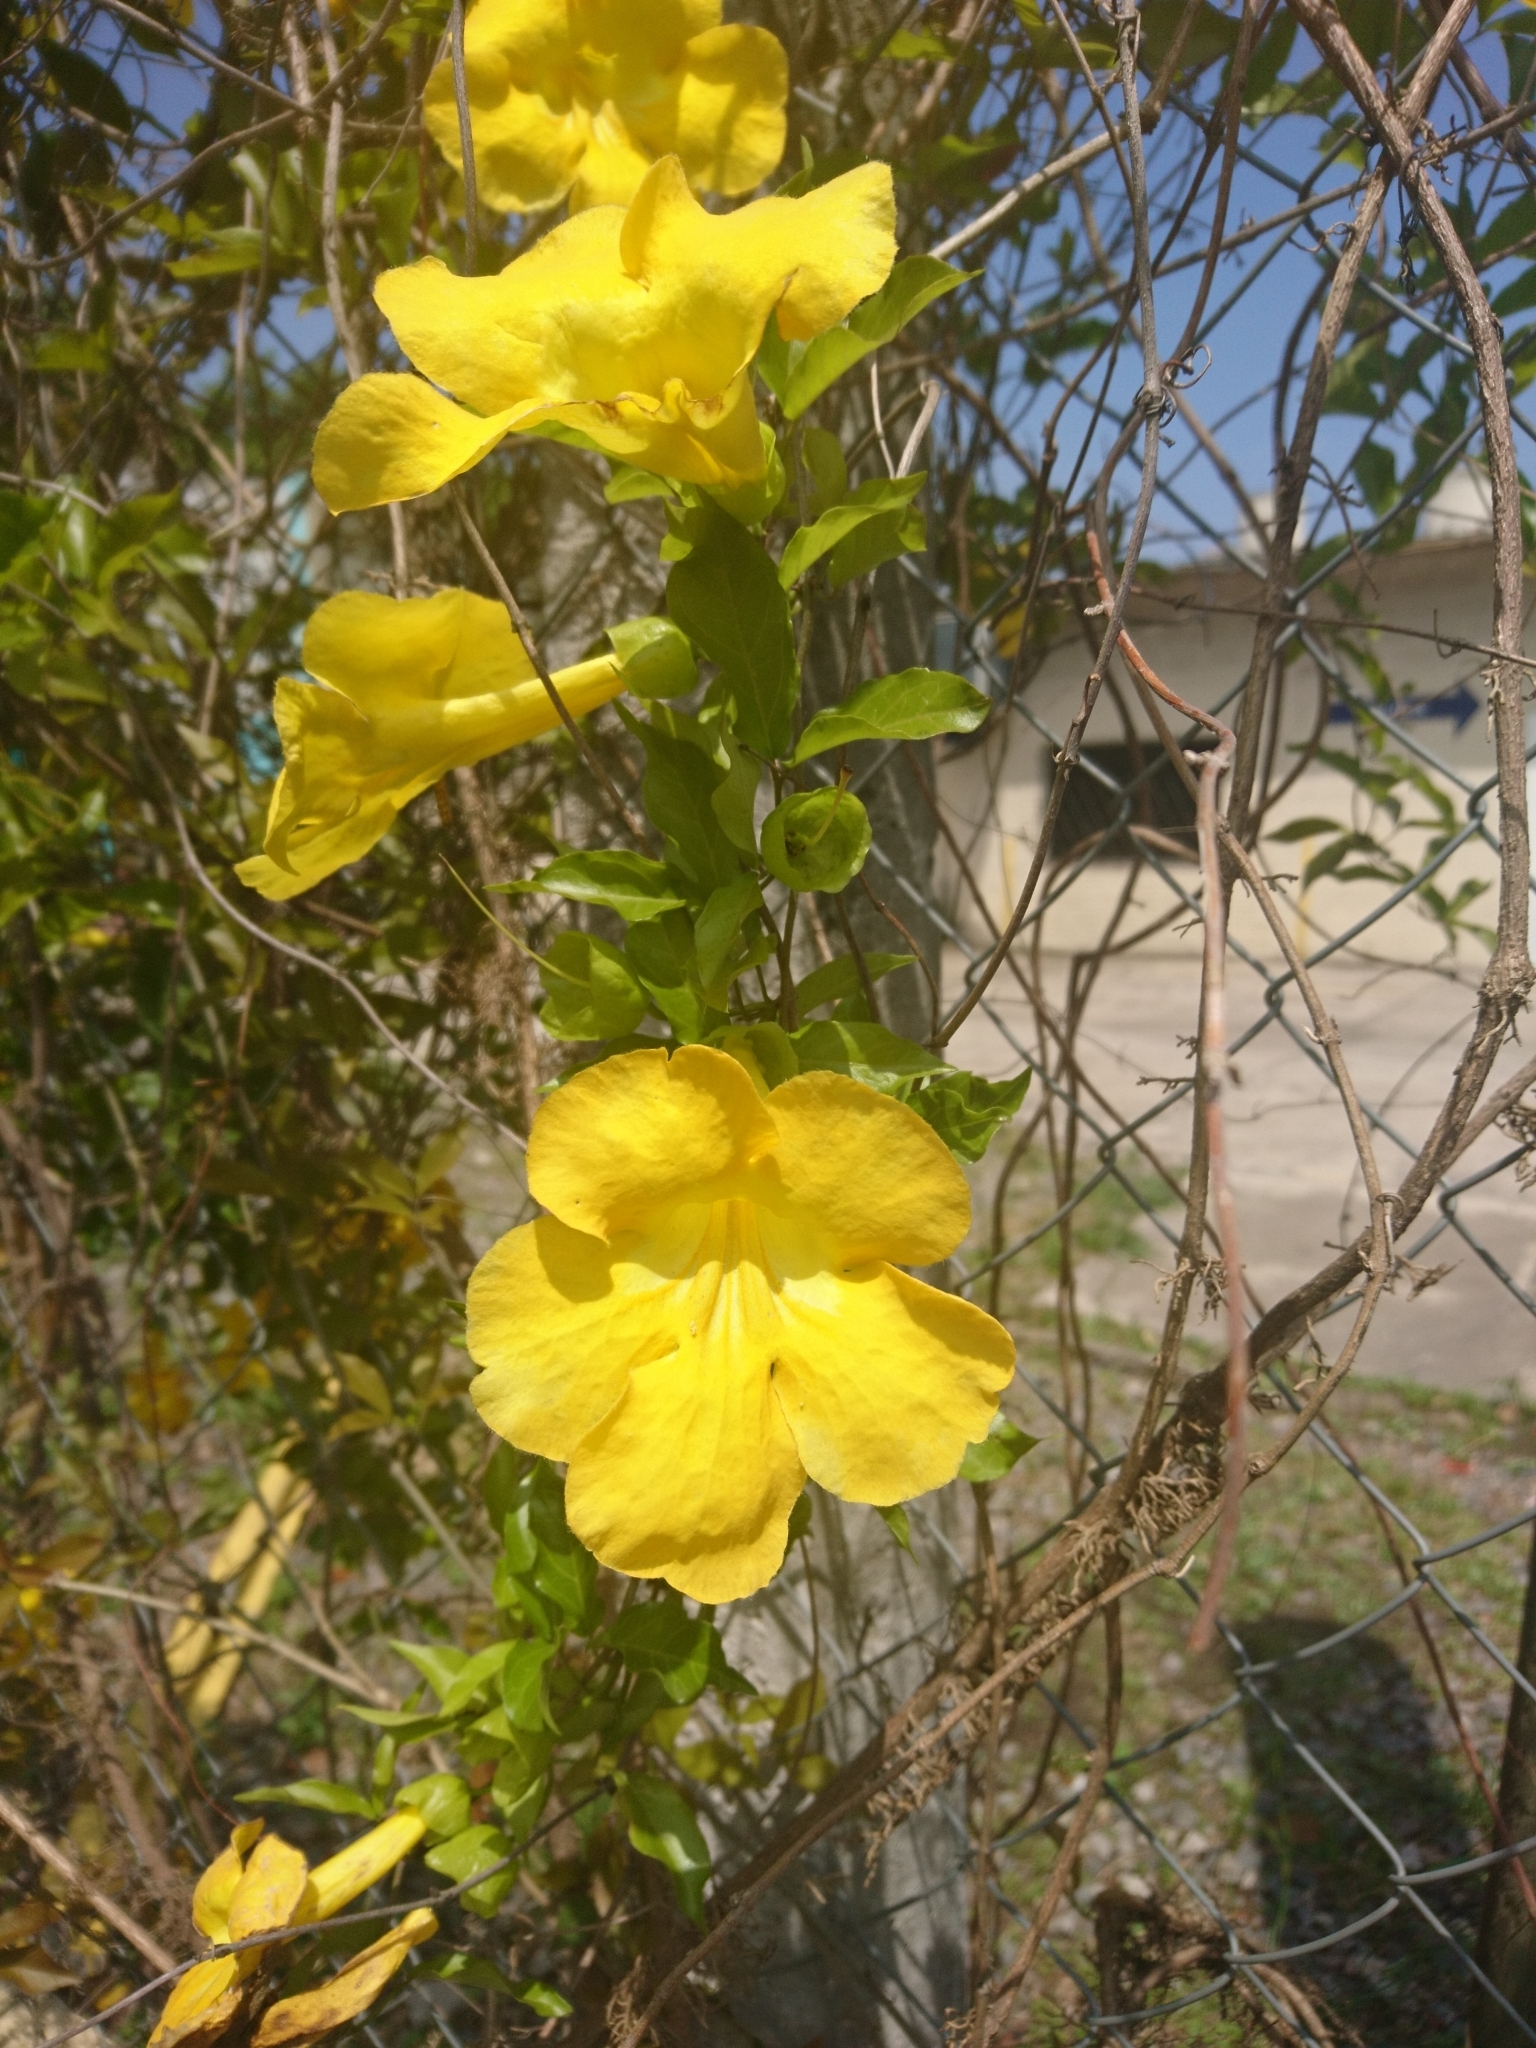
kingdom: Plantae
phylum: Tracheophyta
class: Magnoliopsida
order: Lamiales
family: Bignoniaceae
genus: Dolichandra
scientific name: Dolichandra unguis-cati
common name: Catclaw vine
